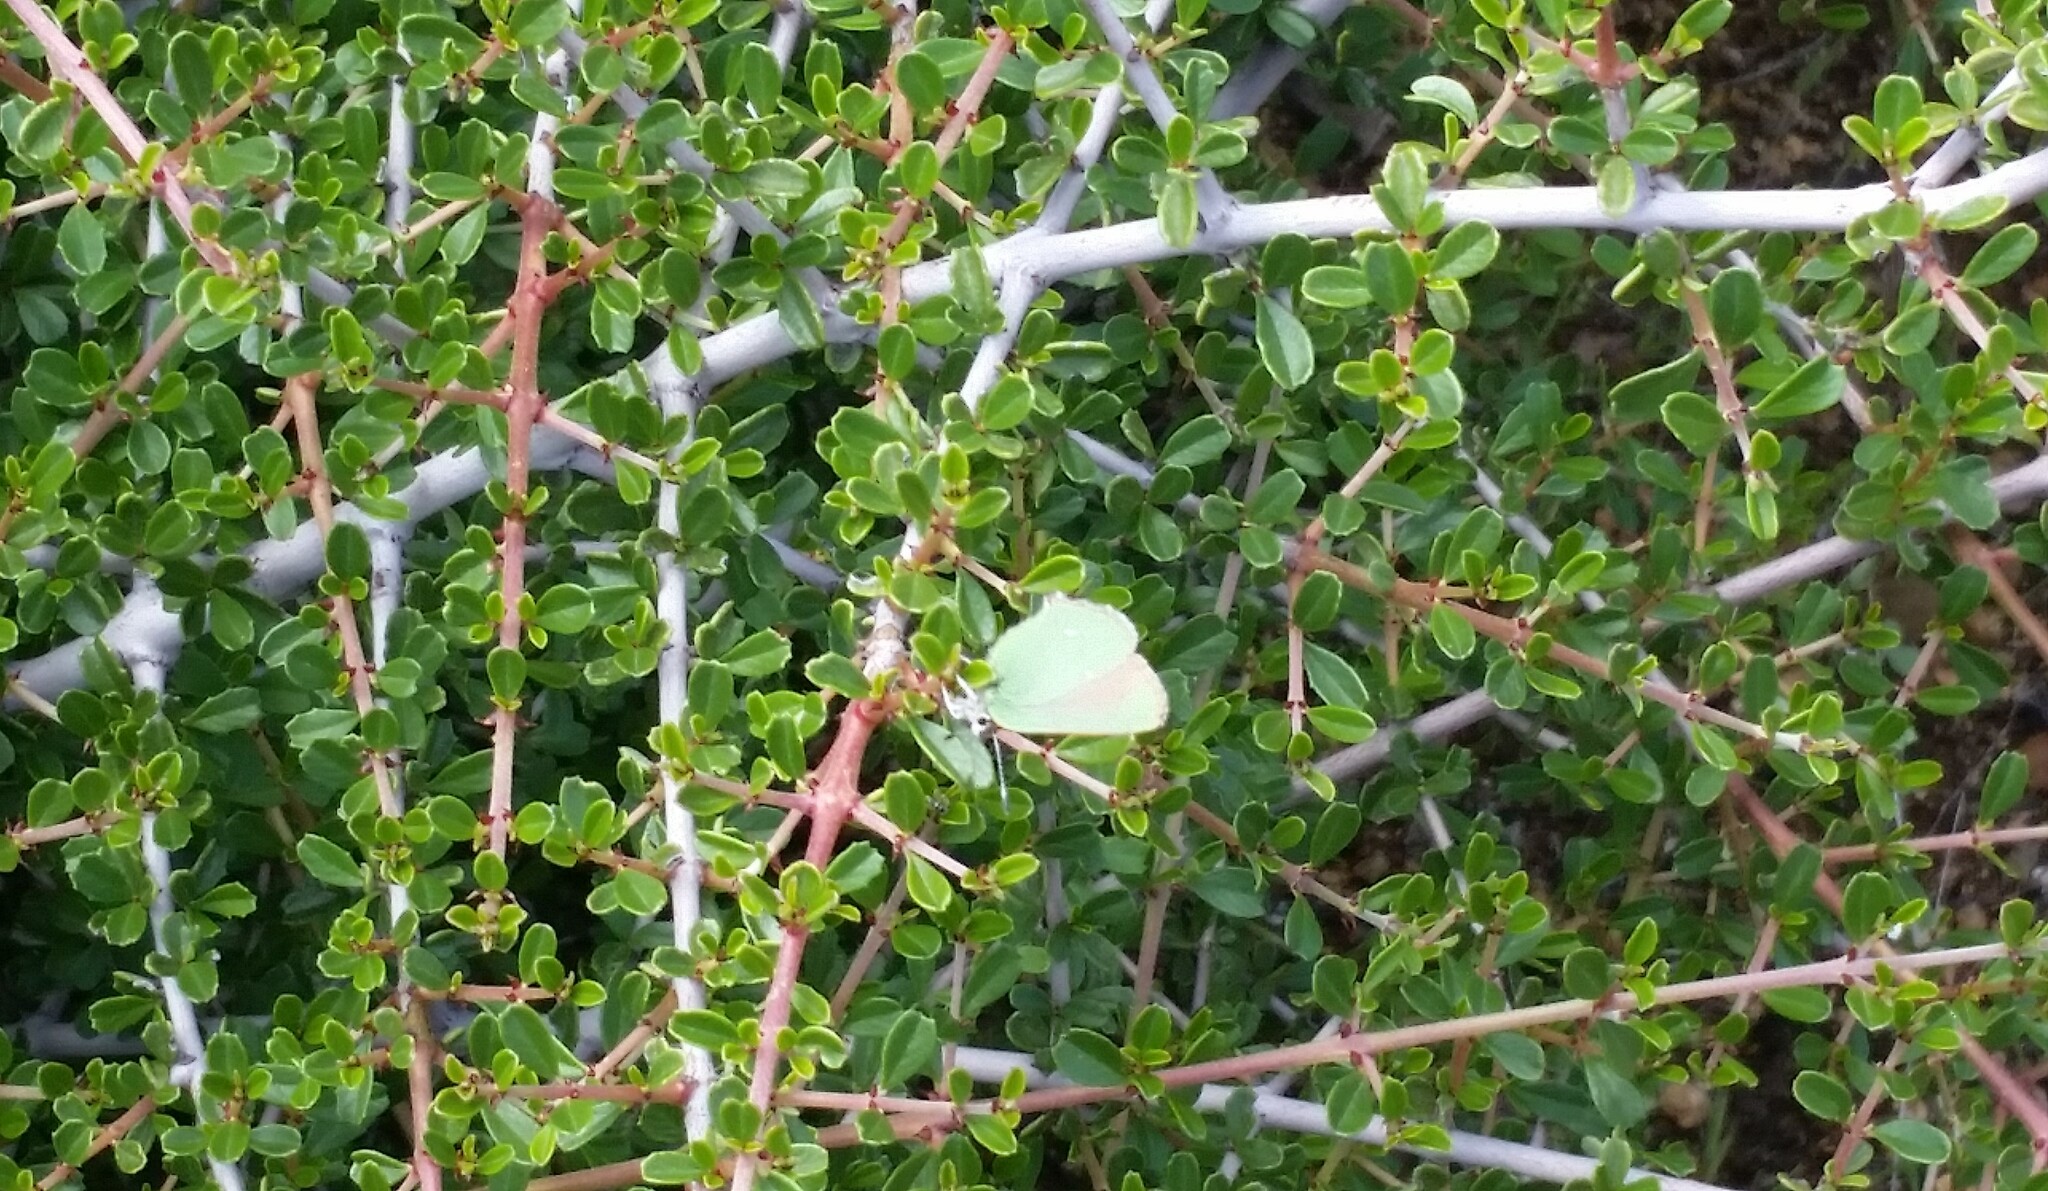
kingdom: Plantae
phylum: Tracheophyta
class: Magnoliopsida
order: Rosales
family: Rhamnaceae
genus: Ceanothus
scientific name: Ceanothus cuneatus
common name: Cuneate ceanothus
